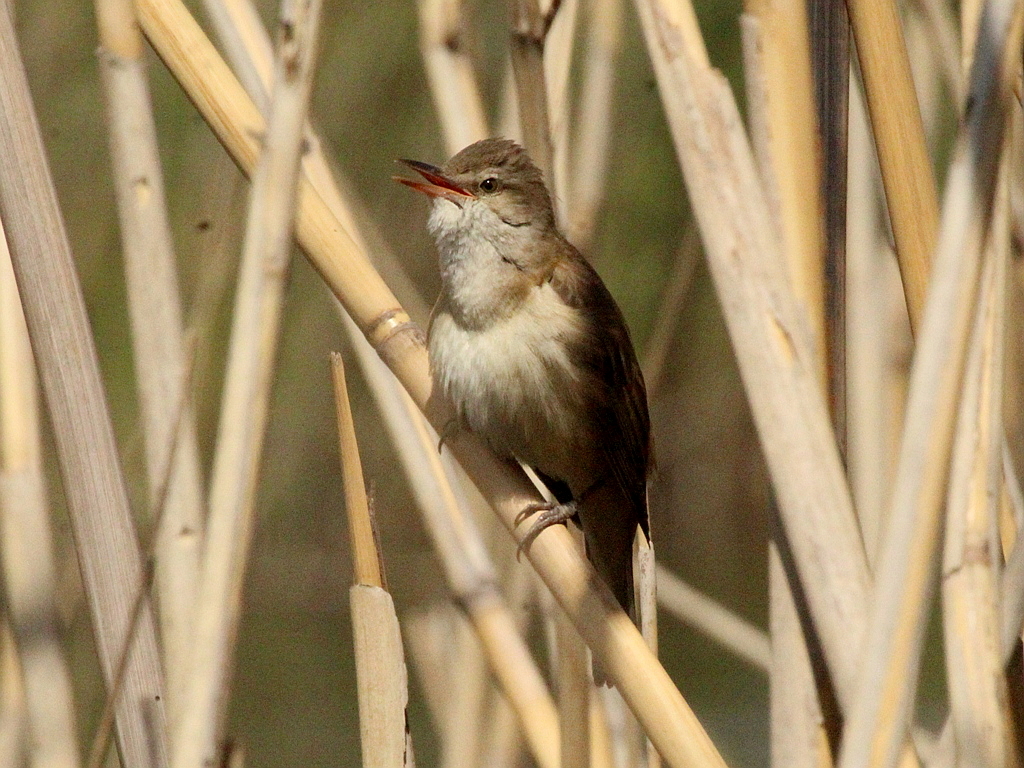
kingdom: Animalia
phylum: Chordata
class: Aves
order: Passeriformes
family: Acrocephalidae
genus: Acrocephalus
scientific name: Acrocephalus arundinaceus
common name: Great reed warbler
